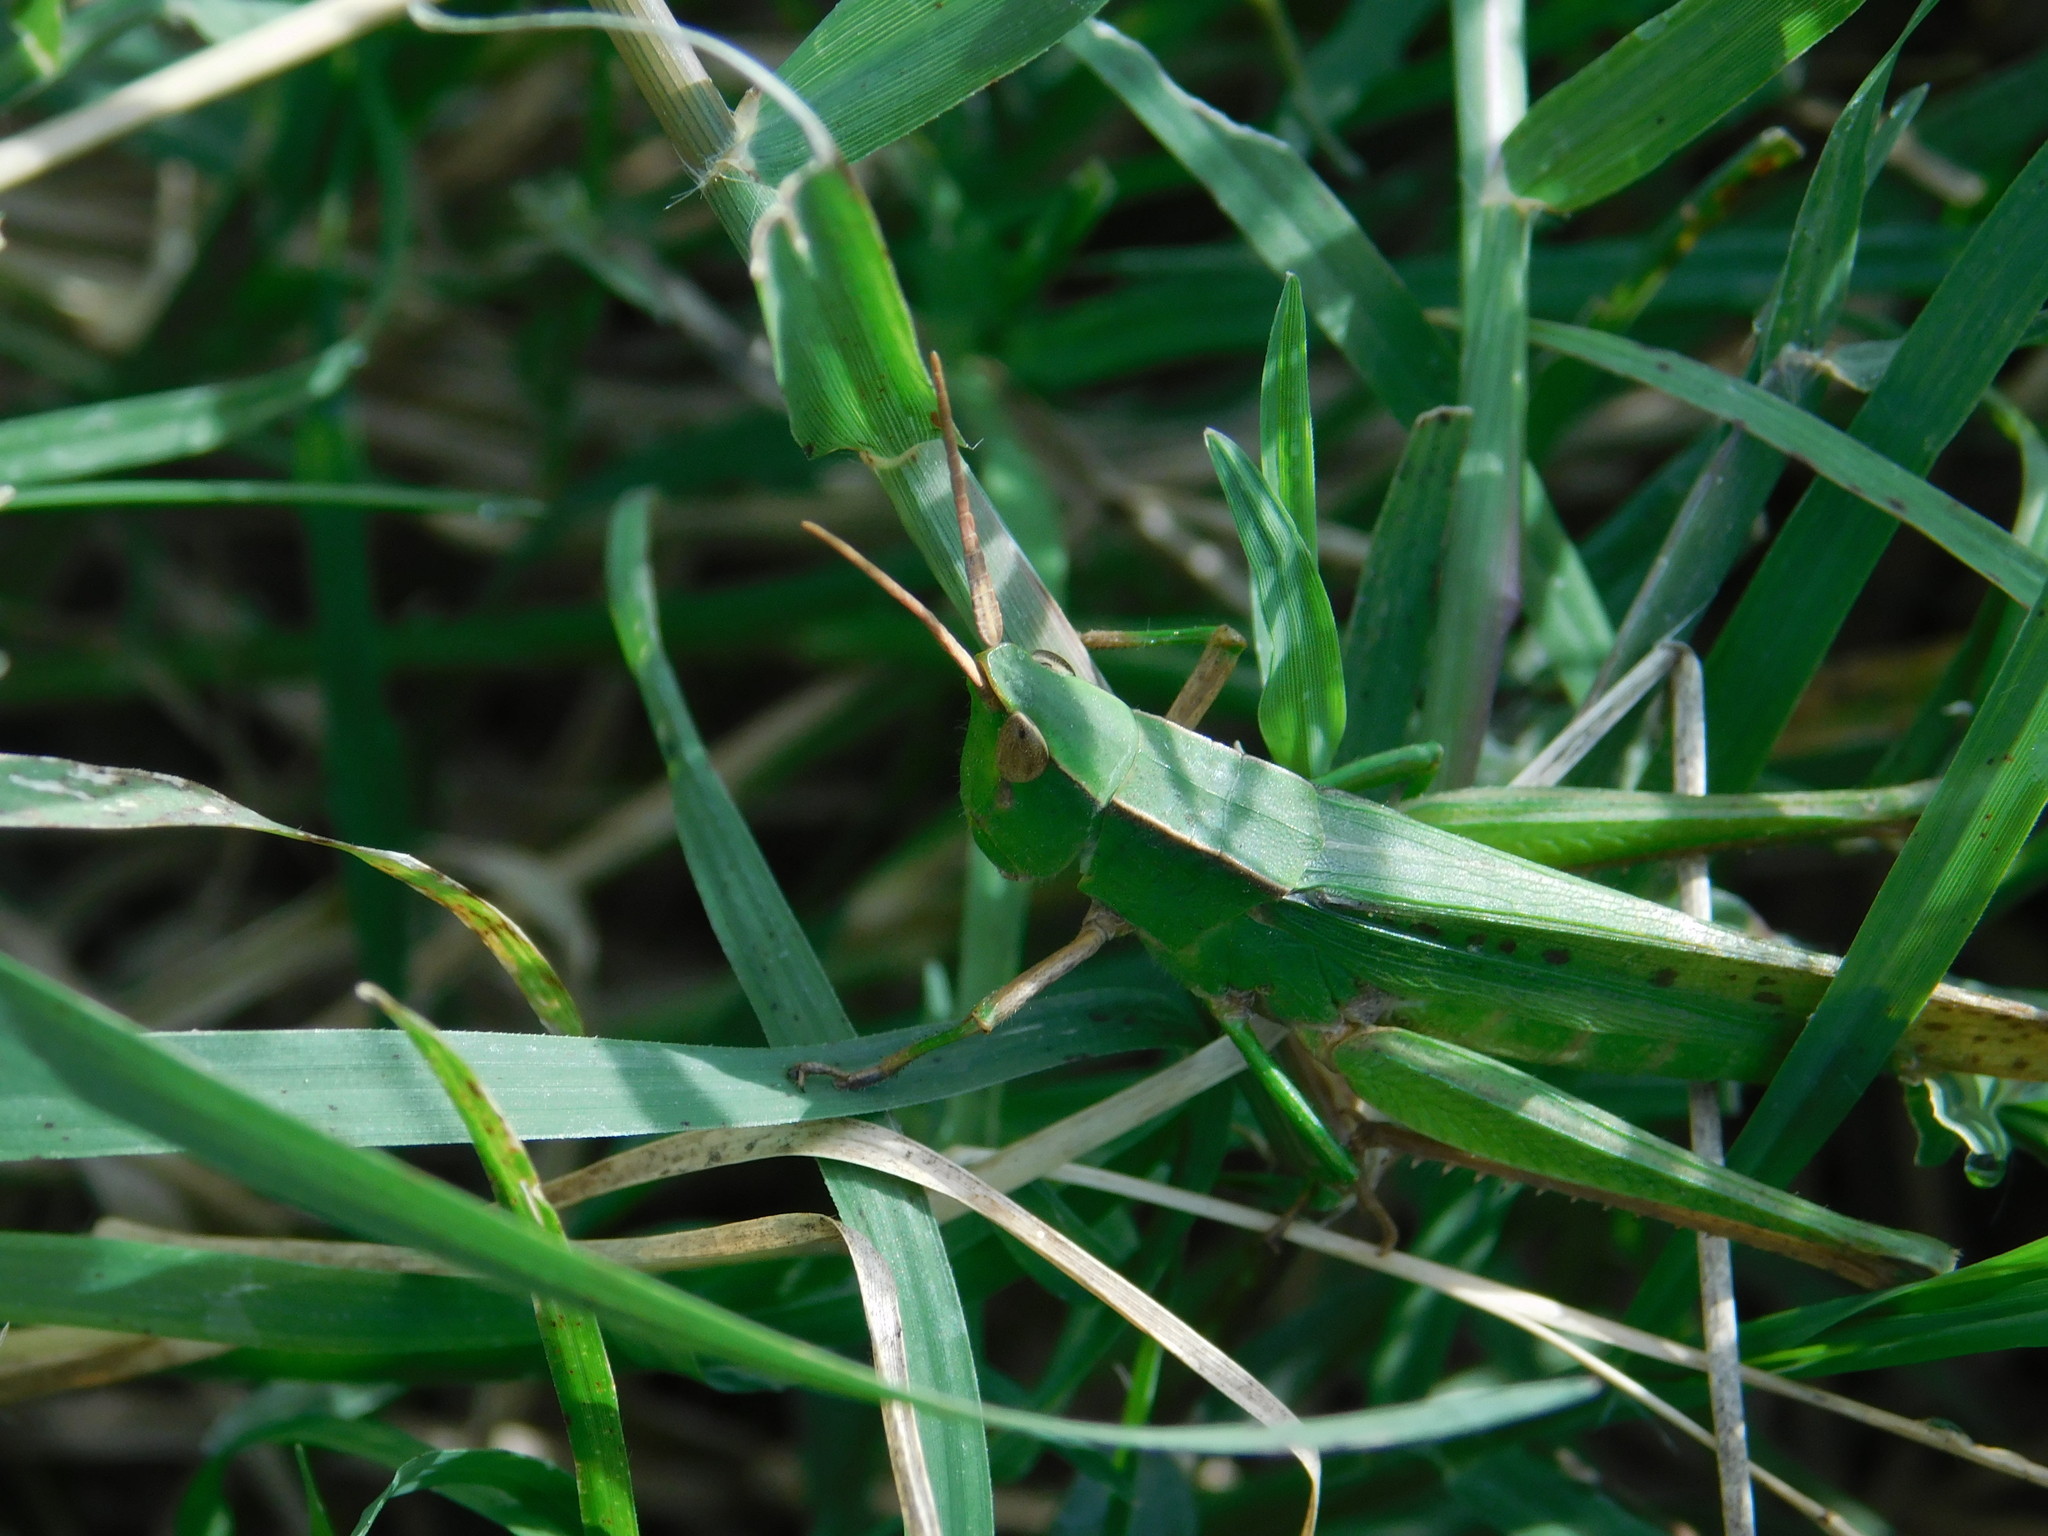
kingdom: Animalia
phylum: Arthropoda
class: Insecta
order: Orthoptera
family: Acrididae
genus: Metaleptea
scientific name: Metaleptea adspersa
